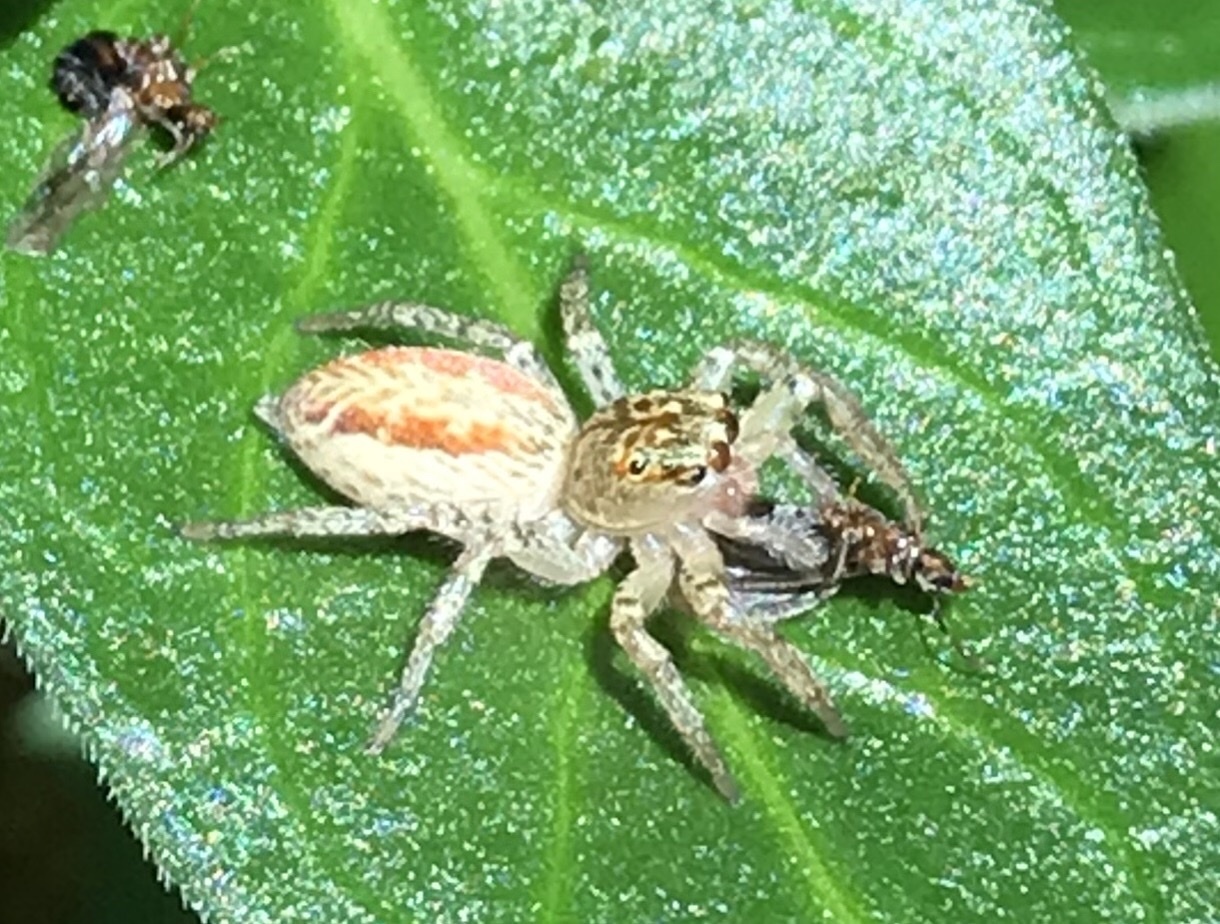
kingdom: Animalia
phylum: Arthropoda
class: Arachnida
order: Araneae
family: Salticidae
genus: Maevia
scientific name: Maevia inclemens
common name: Dimorphic jumper
